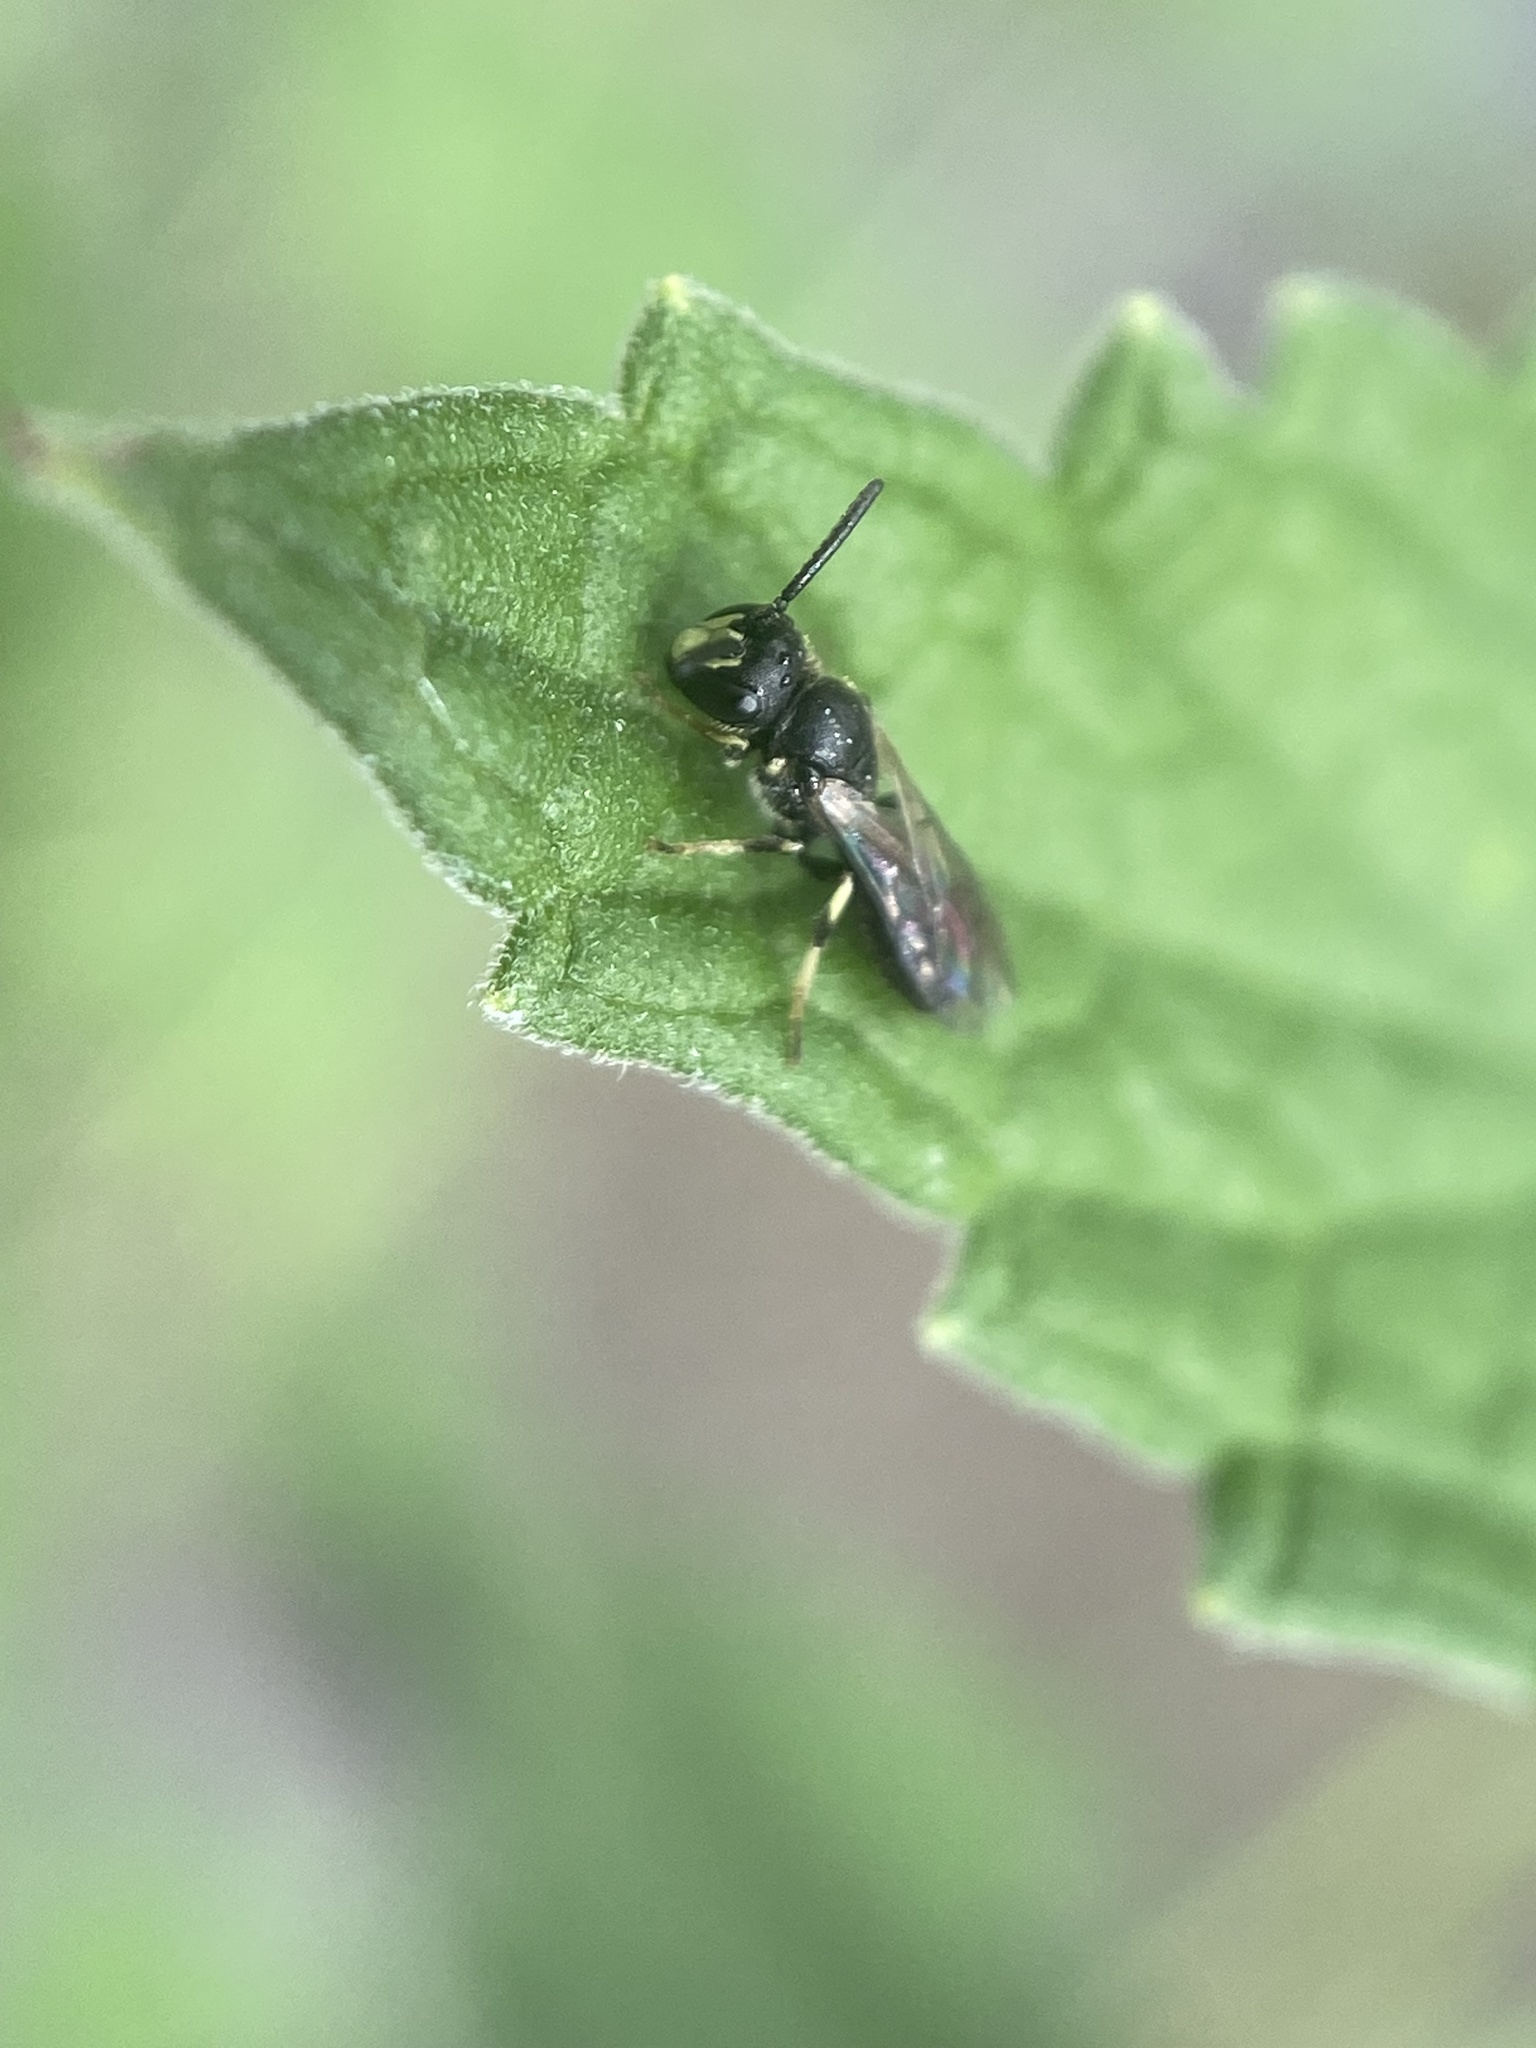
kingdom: Animalia
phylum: Arthropoda
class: Insecta
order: Hymenoptera
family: Colletidae
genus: Hylaeus
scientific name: Hylaeus mesillae
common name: Mesilla masked bee
